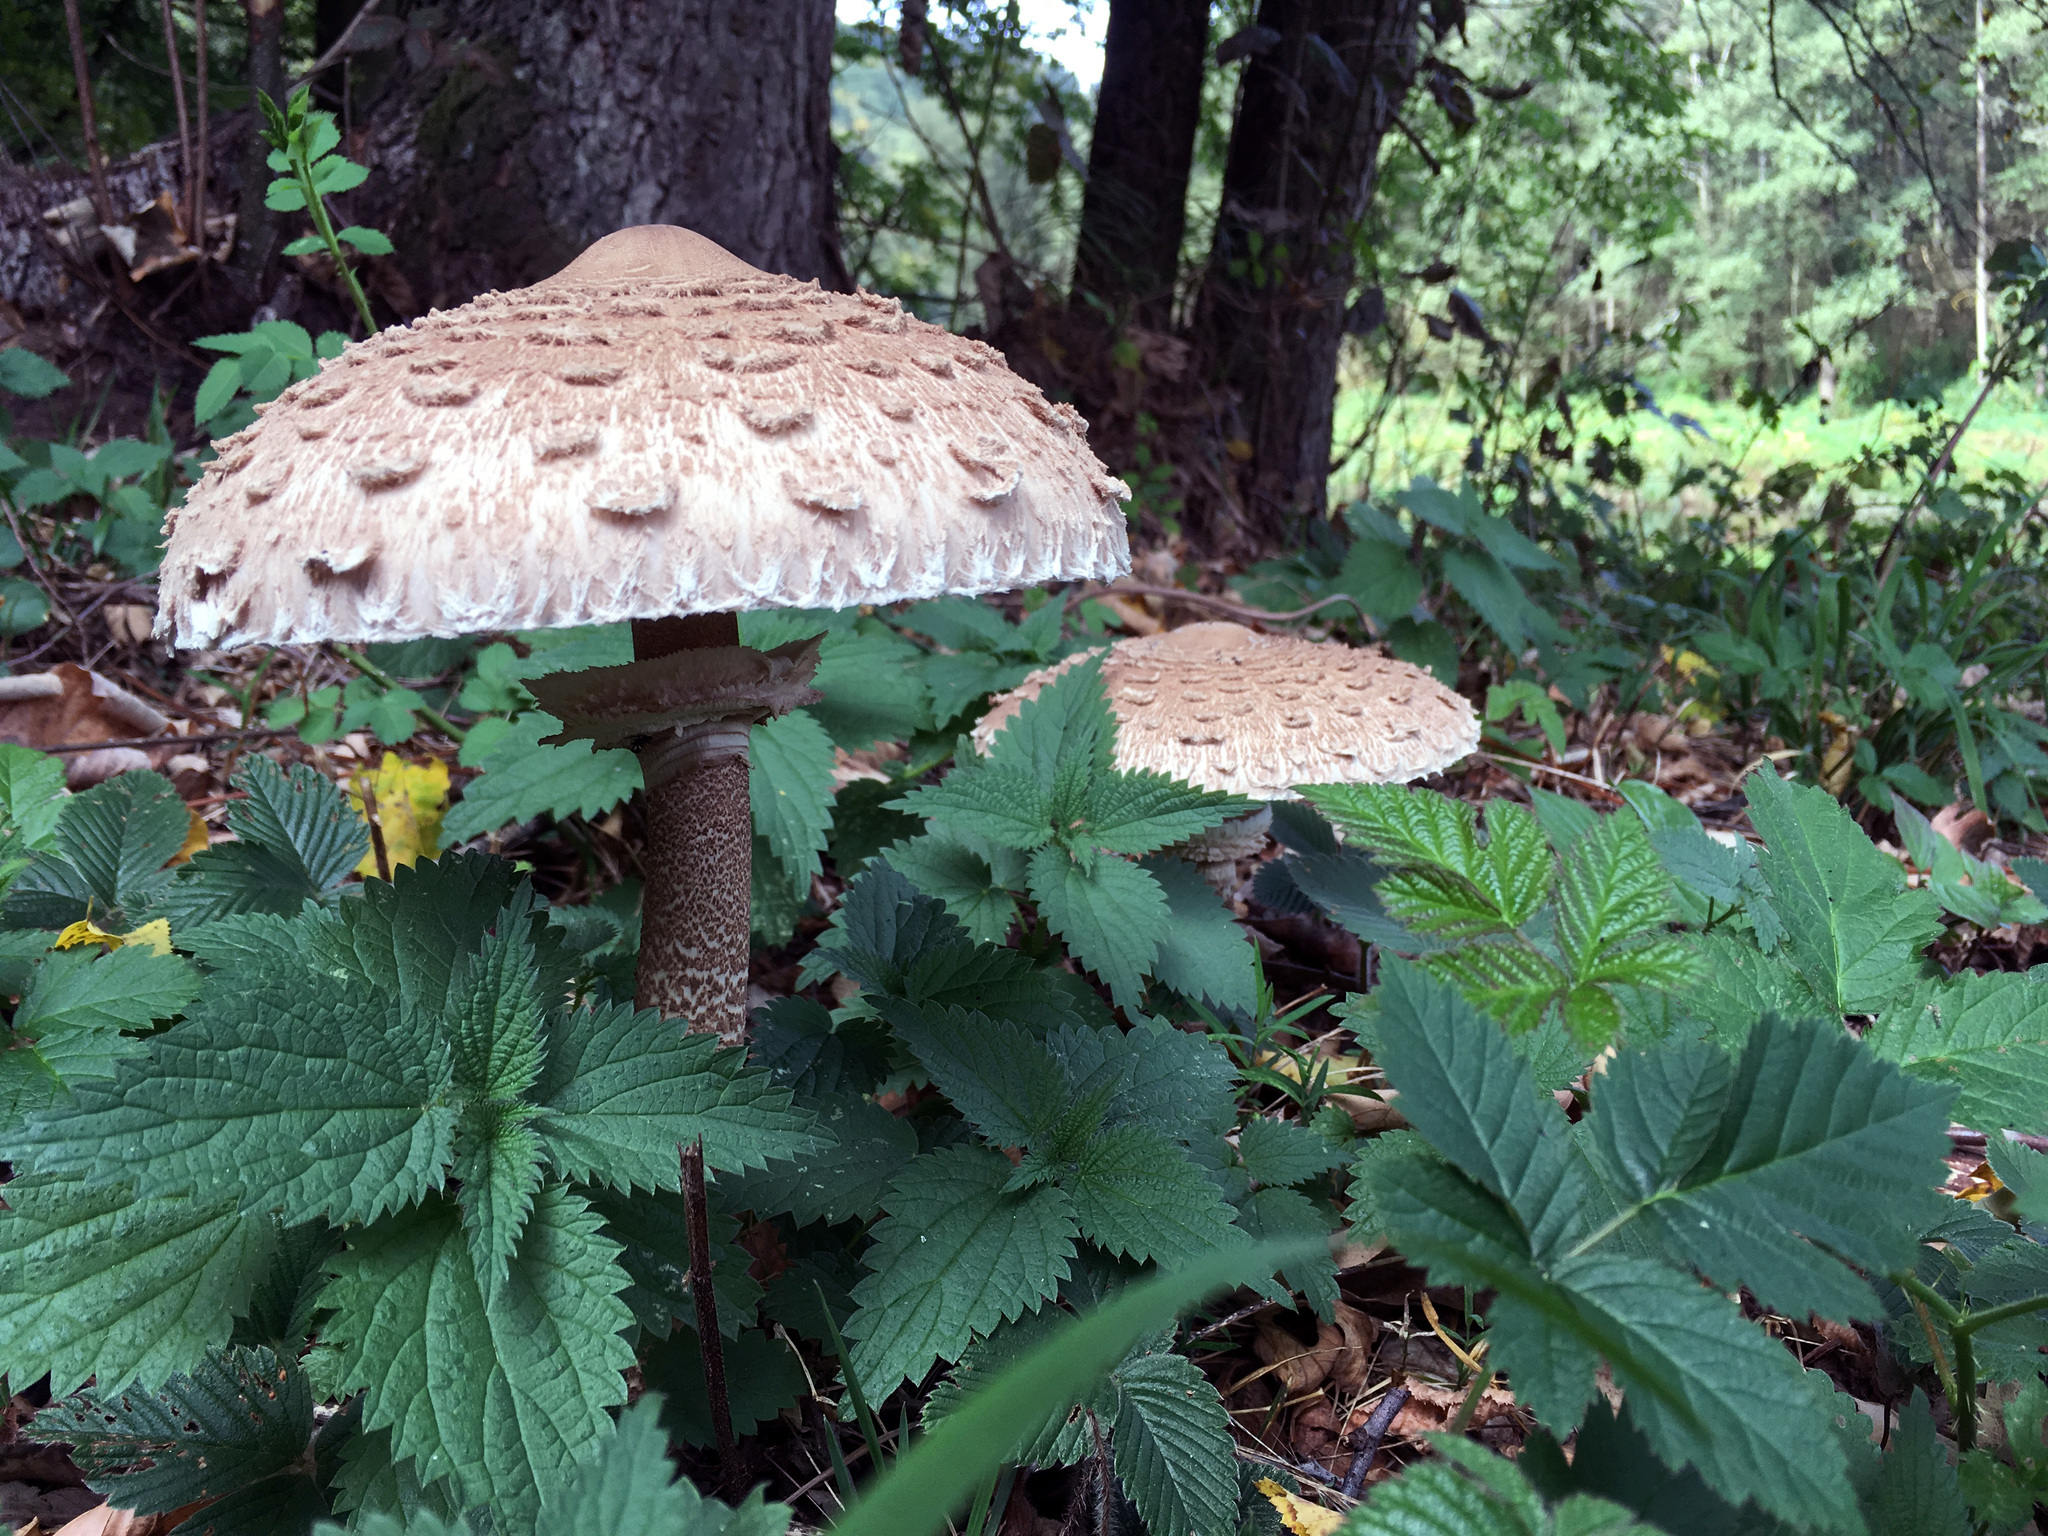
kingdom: Fungi
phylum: Basidiomycota
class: Agaricomycetes
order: Agaricales
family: Agaricaceae
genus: Macrolepiota
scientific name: Macrolepiota procera
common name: Parasol
